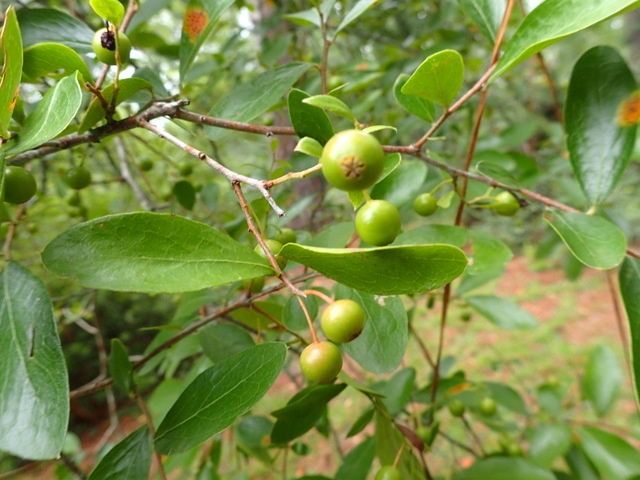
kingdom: Plantae
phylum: Tracheophyta
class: Magnoliopsida
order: Ericales
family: Ericaceae
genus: Vaccinium
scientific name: Vaccinium arboreum
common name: Farkleberry
